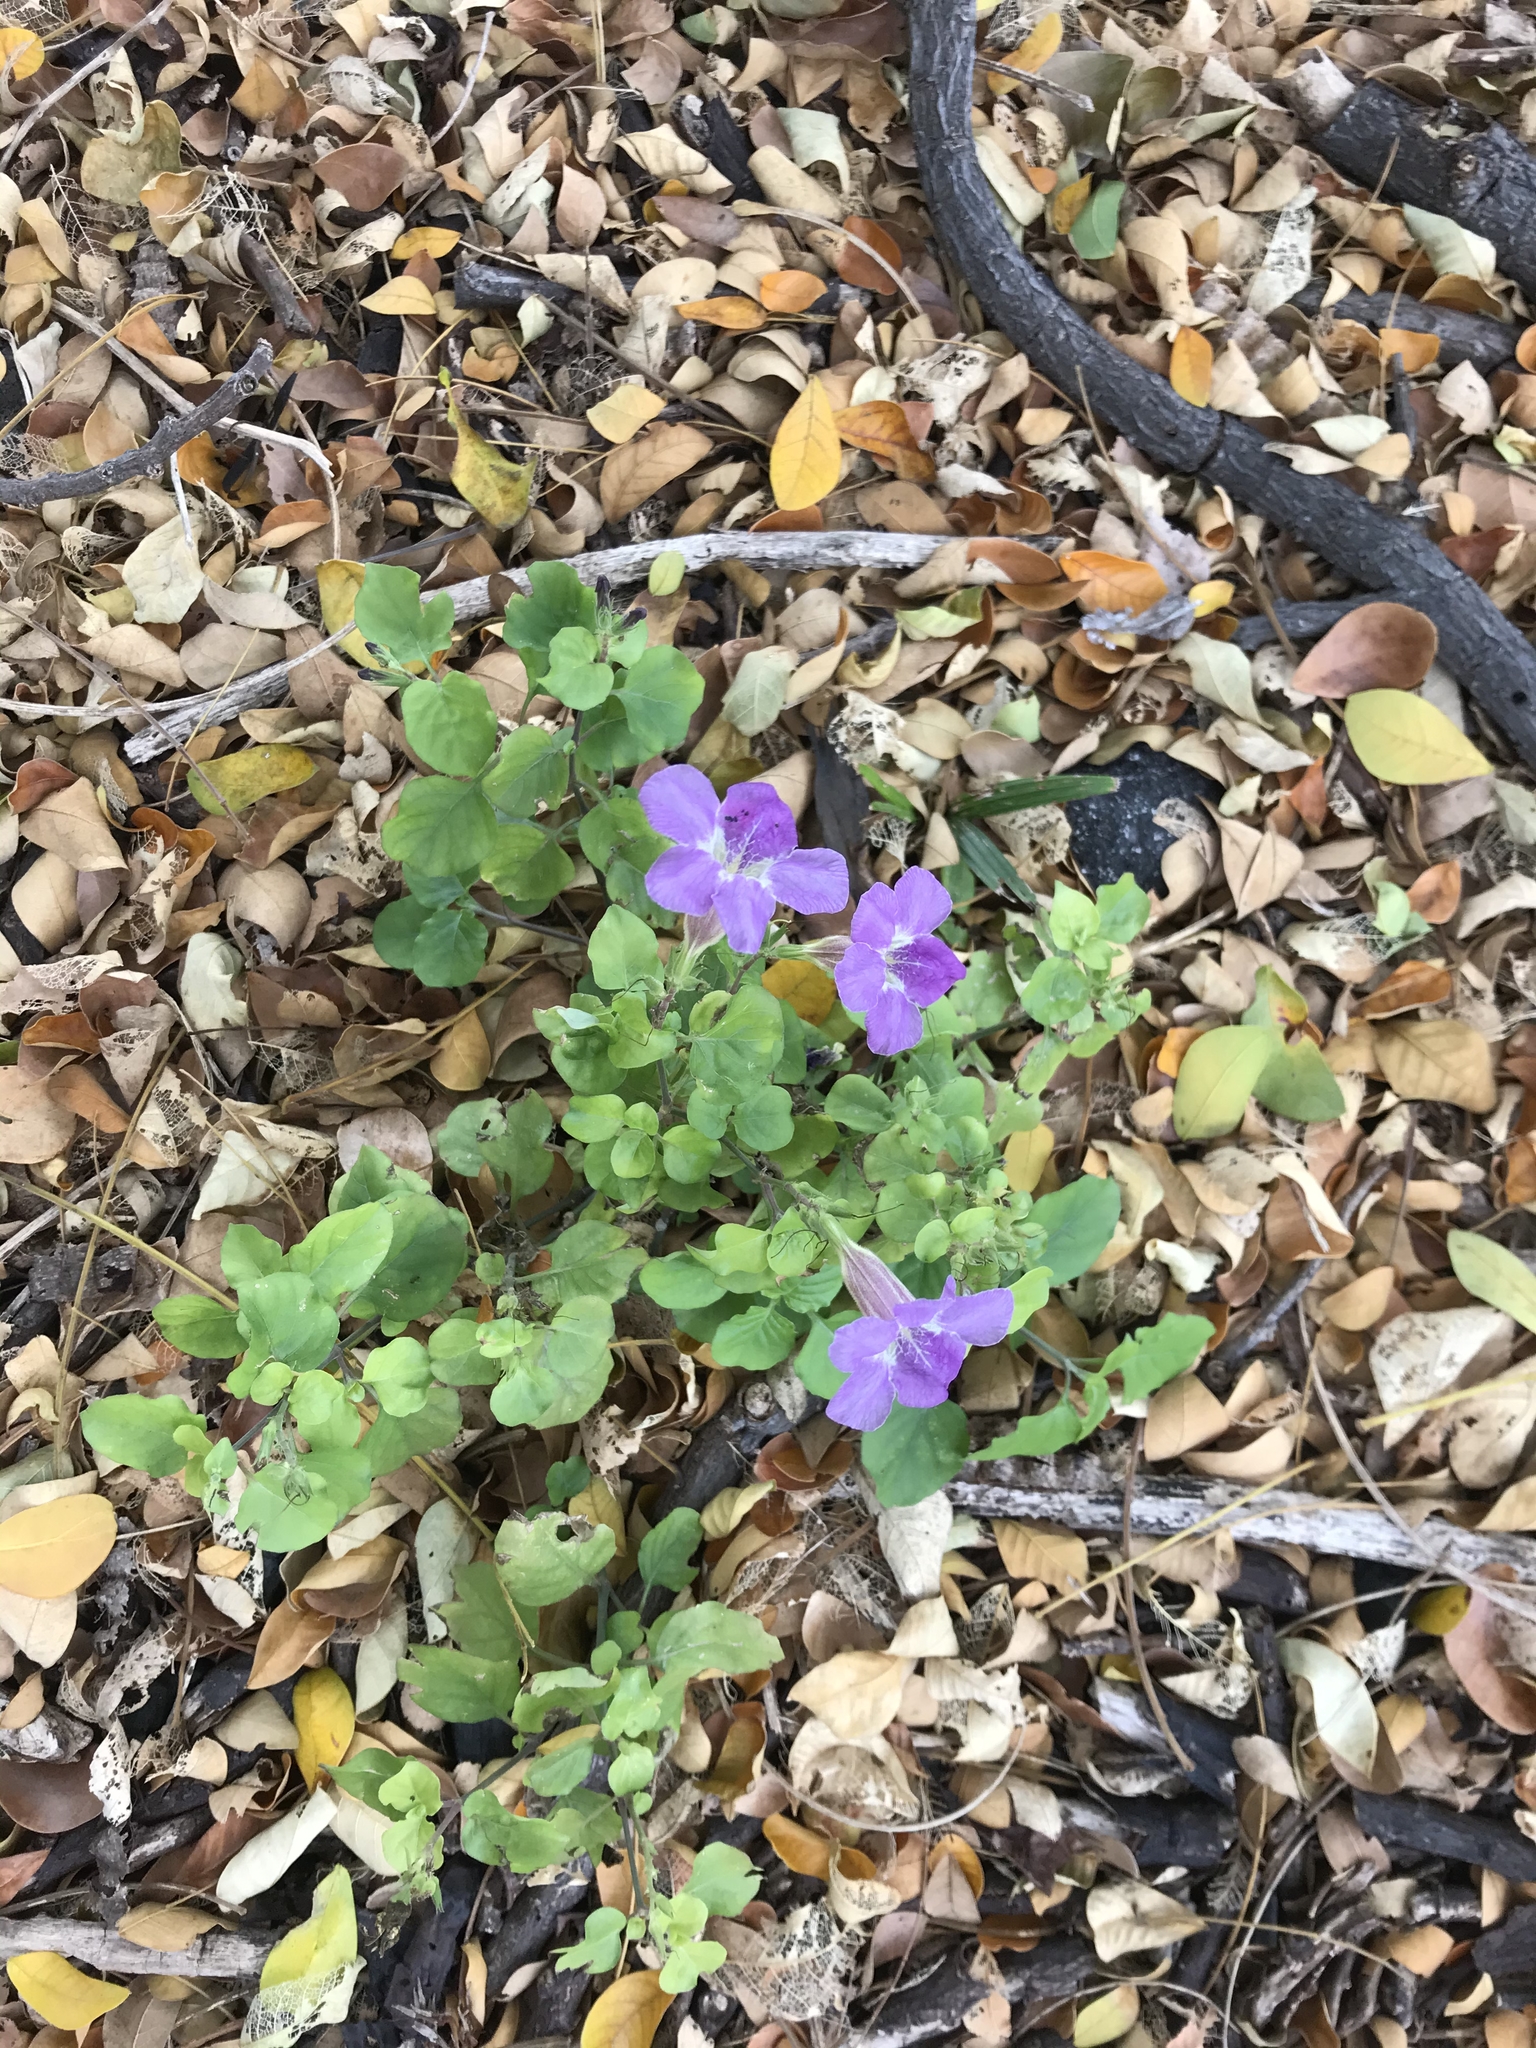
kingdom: Plantae
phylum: Tracheophyta
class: Magnoliopsida
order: Lamiales
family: Acanthaceae
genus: Asystasia
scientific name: Asystasia gangetica
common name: Chinese violet
